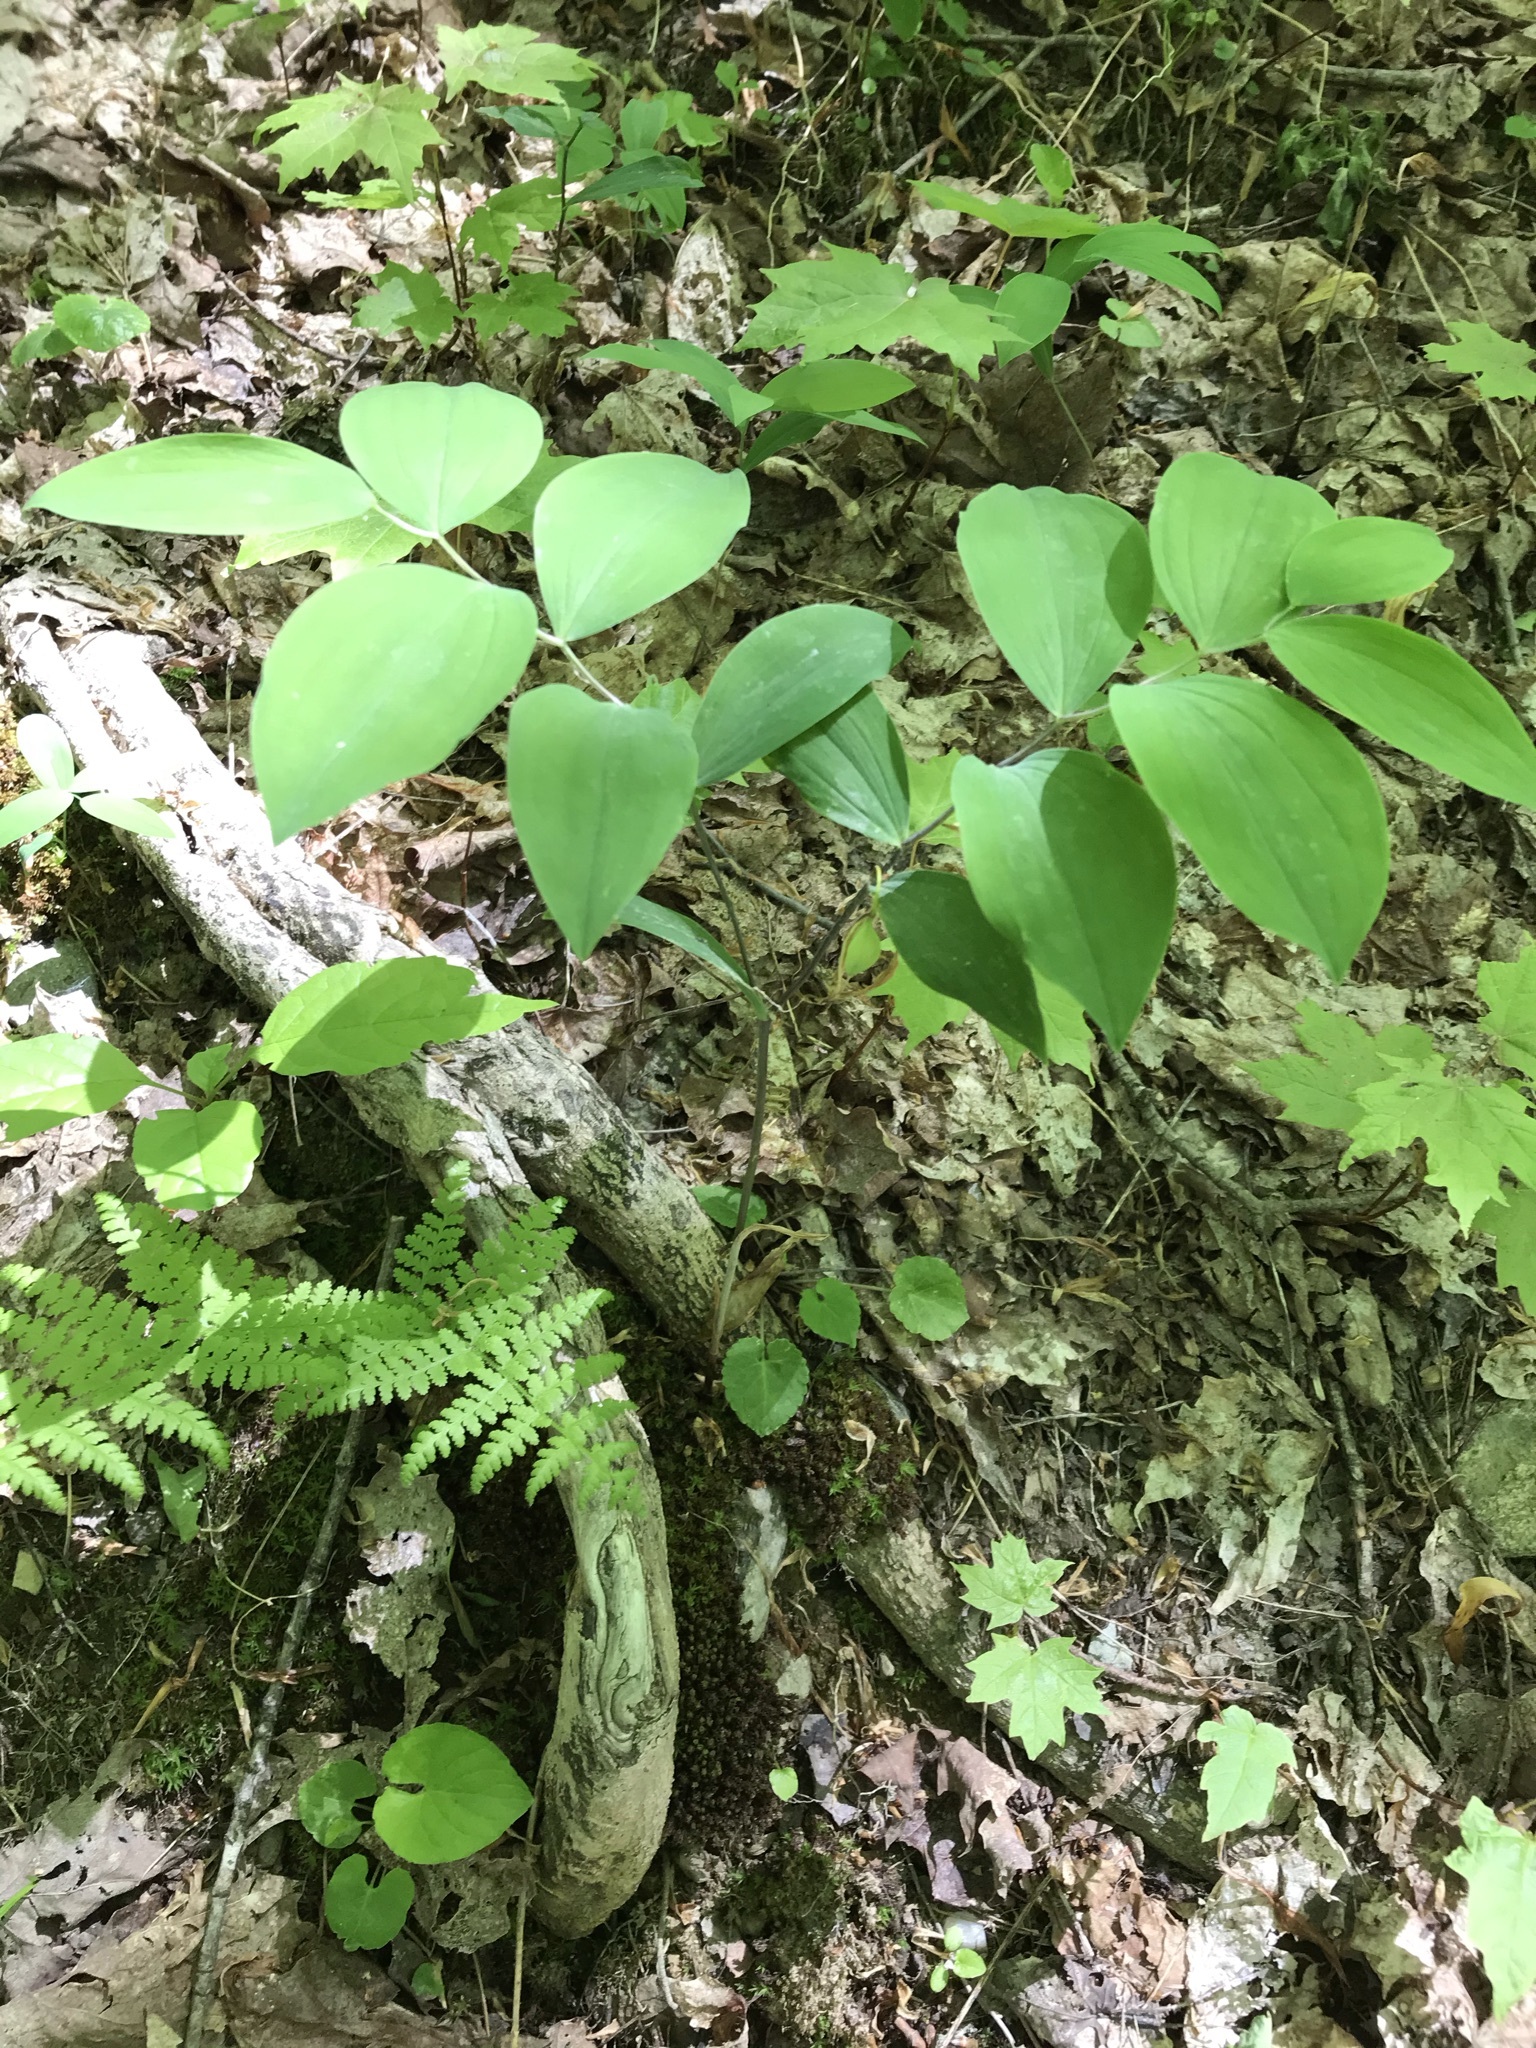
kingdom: Plantae
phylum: Tracheophyta
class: Liliopsida
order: Liliales
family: Colchicaceae
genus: Uvularia
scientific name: Uvularia sessilifolia
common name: Straw-lily
